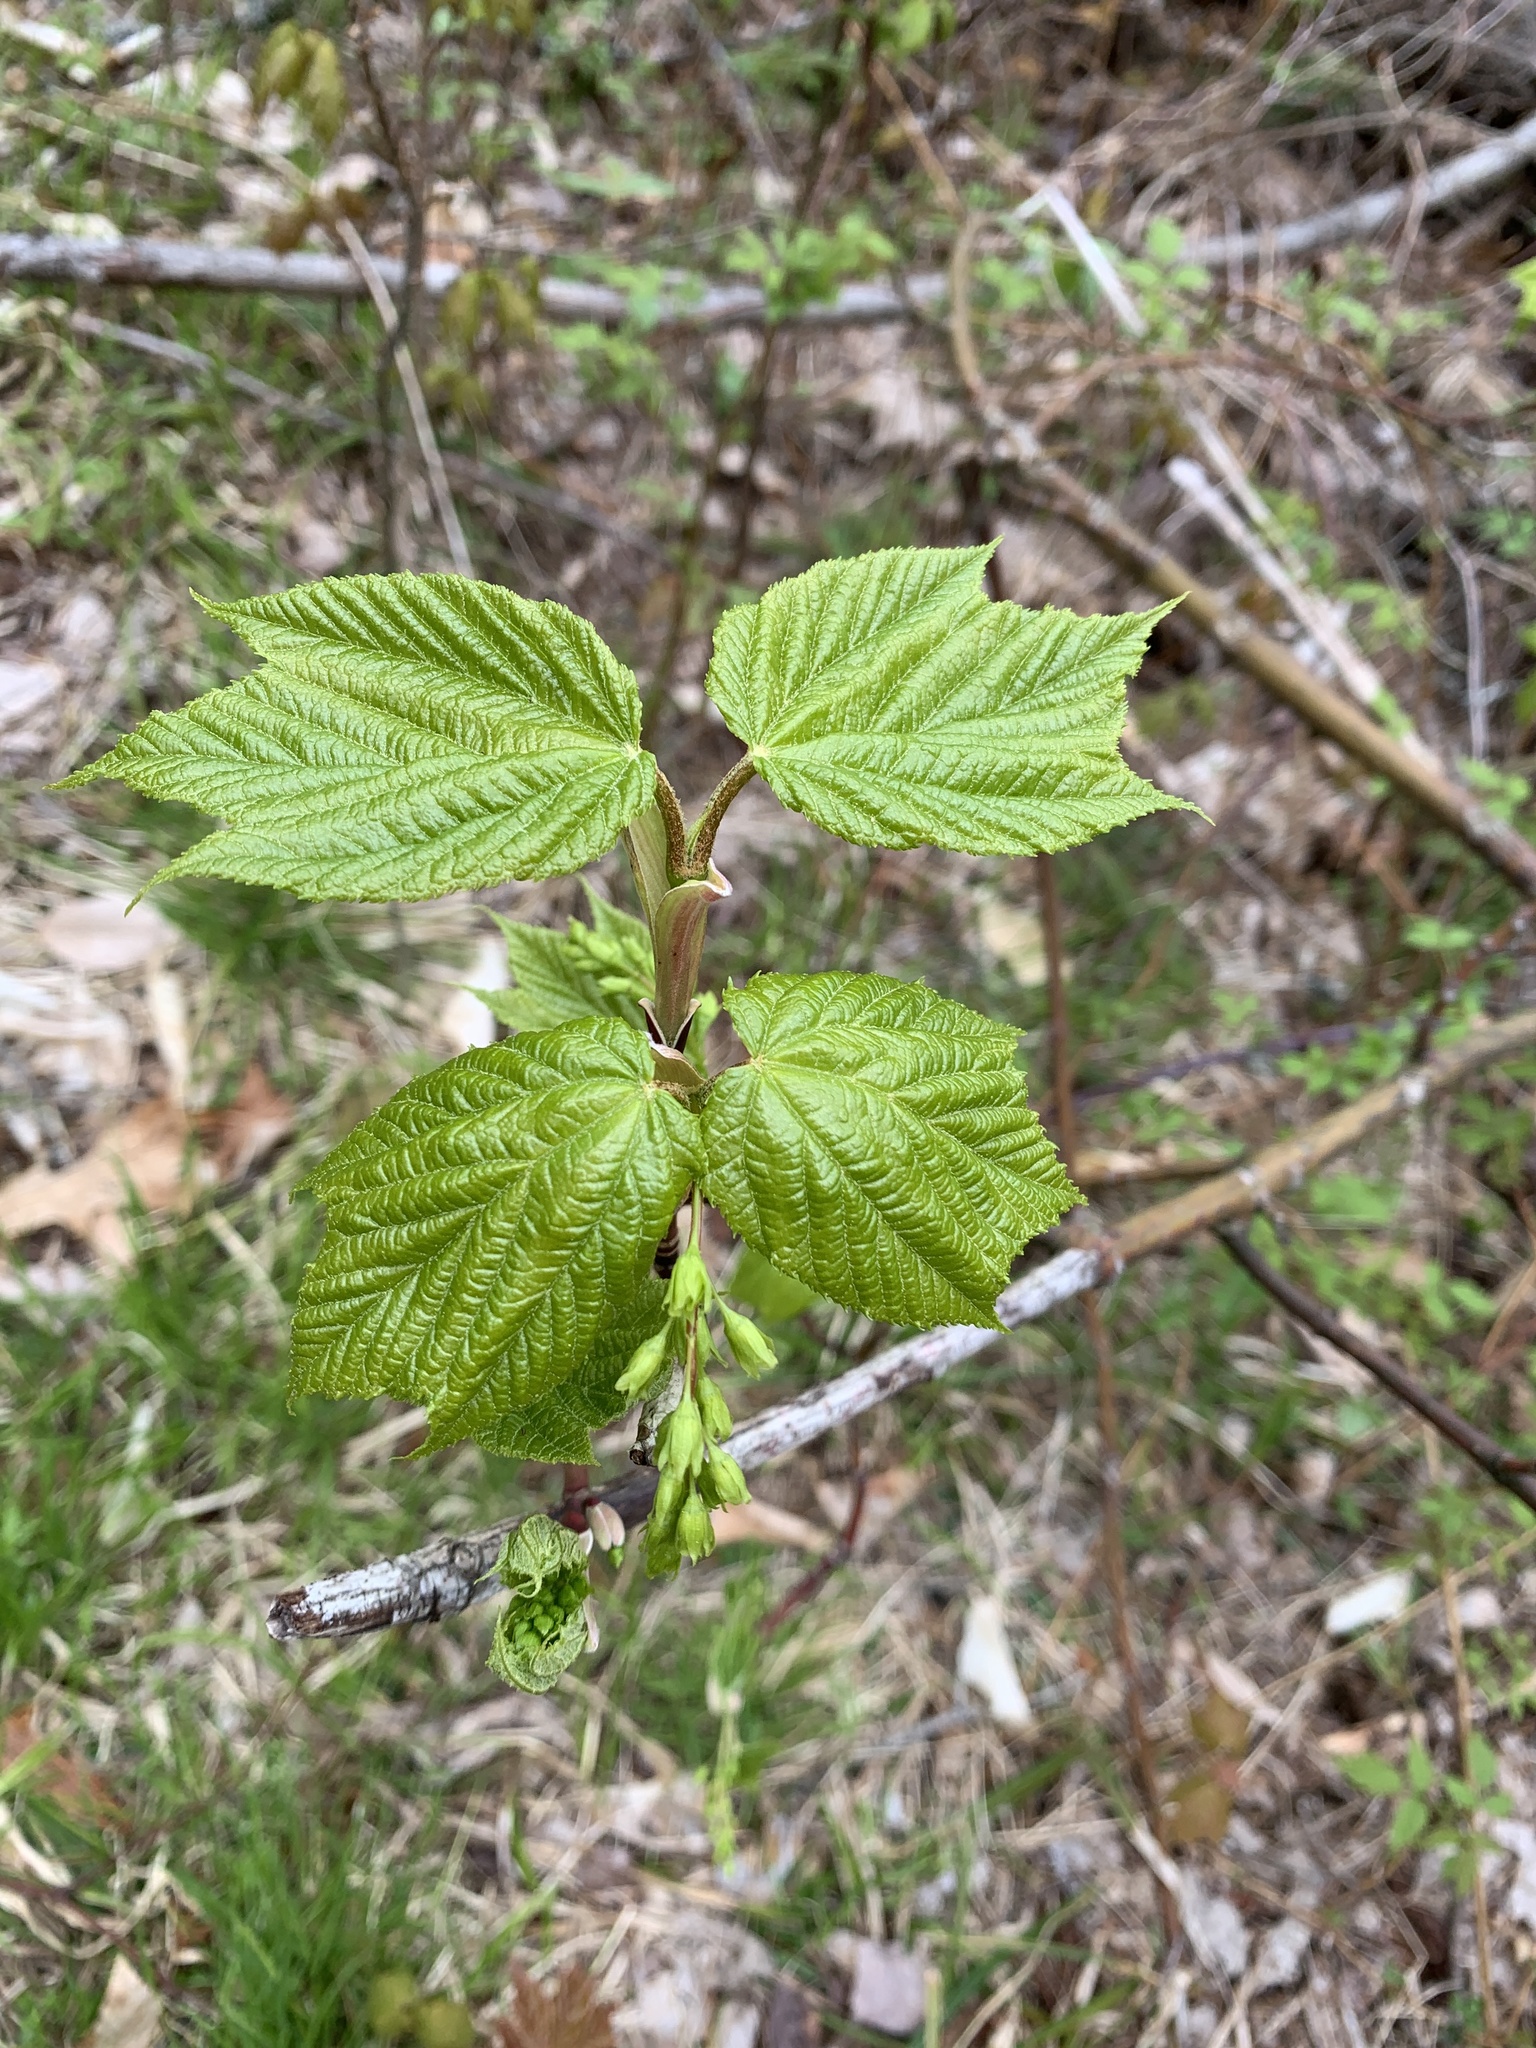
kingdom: Plantae
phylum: Tracheophyta
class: Magnoliopsida
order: Sapindales
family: Sapindaceae
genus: Acer
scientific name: Acer pensylvanicum
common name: Moosewood
